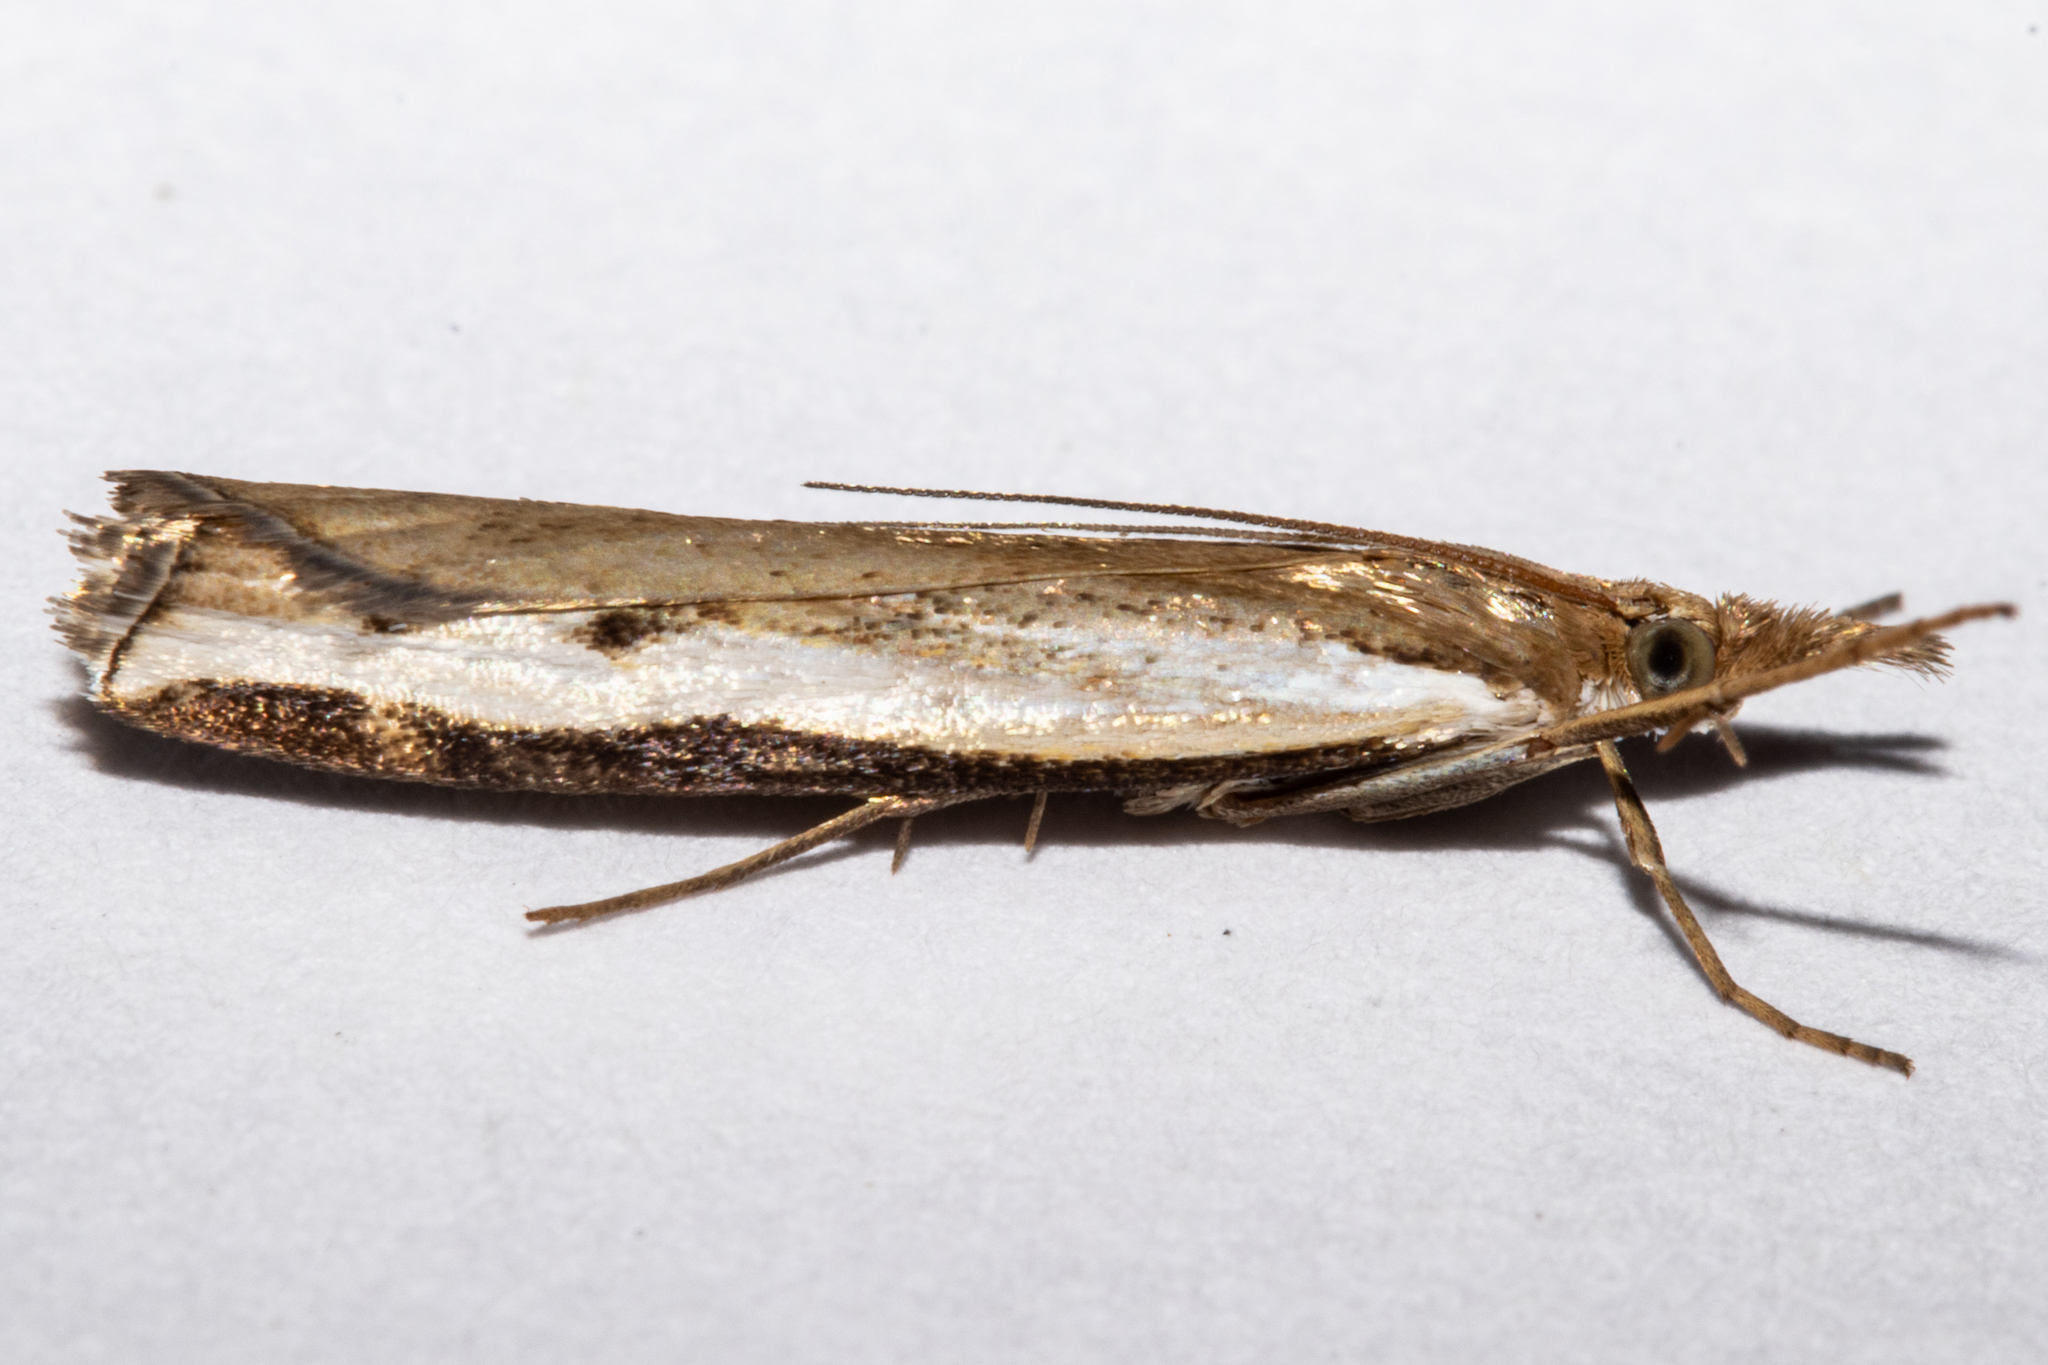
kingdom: Animalia
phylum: Arthropoda
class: Insecta
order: Lepidoptera
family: Crambidae
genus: Orocrambus
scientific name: Orocrambus flexuosellus
